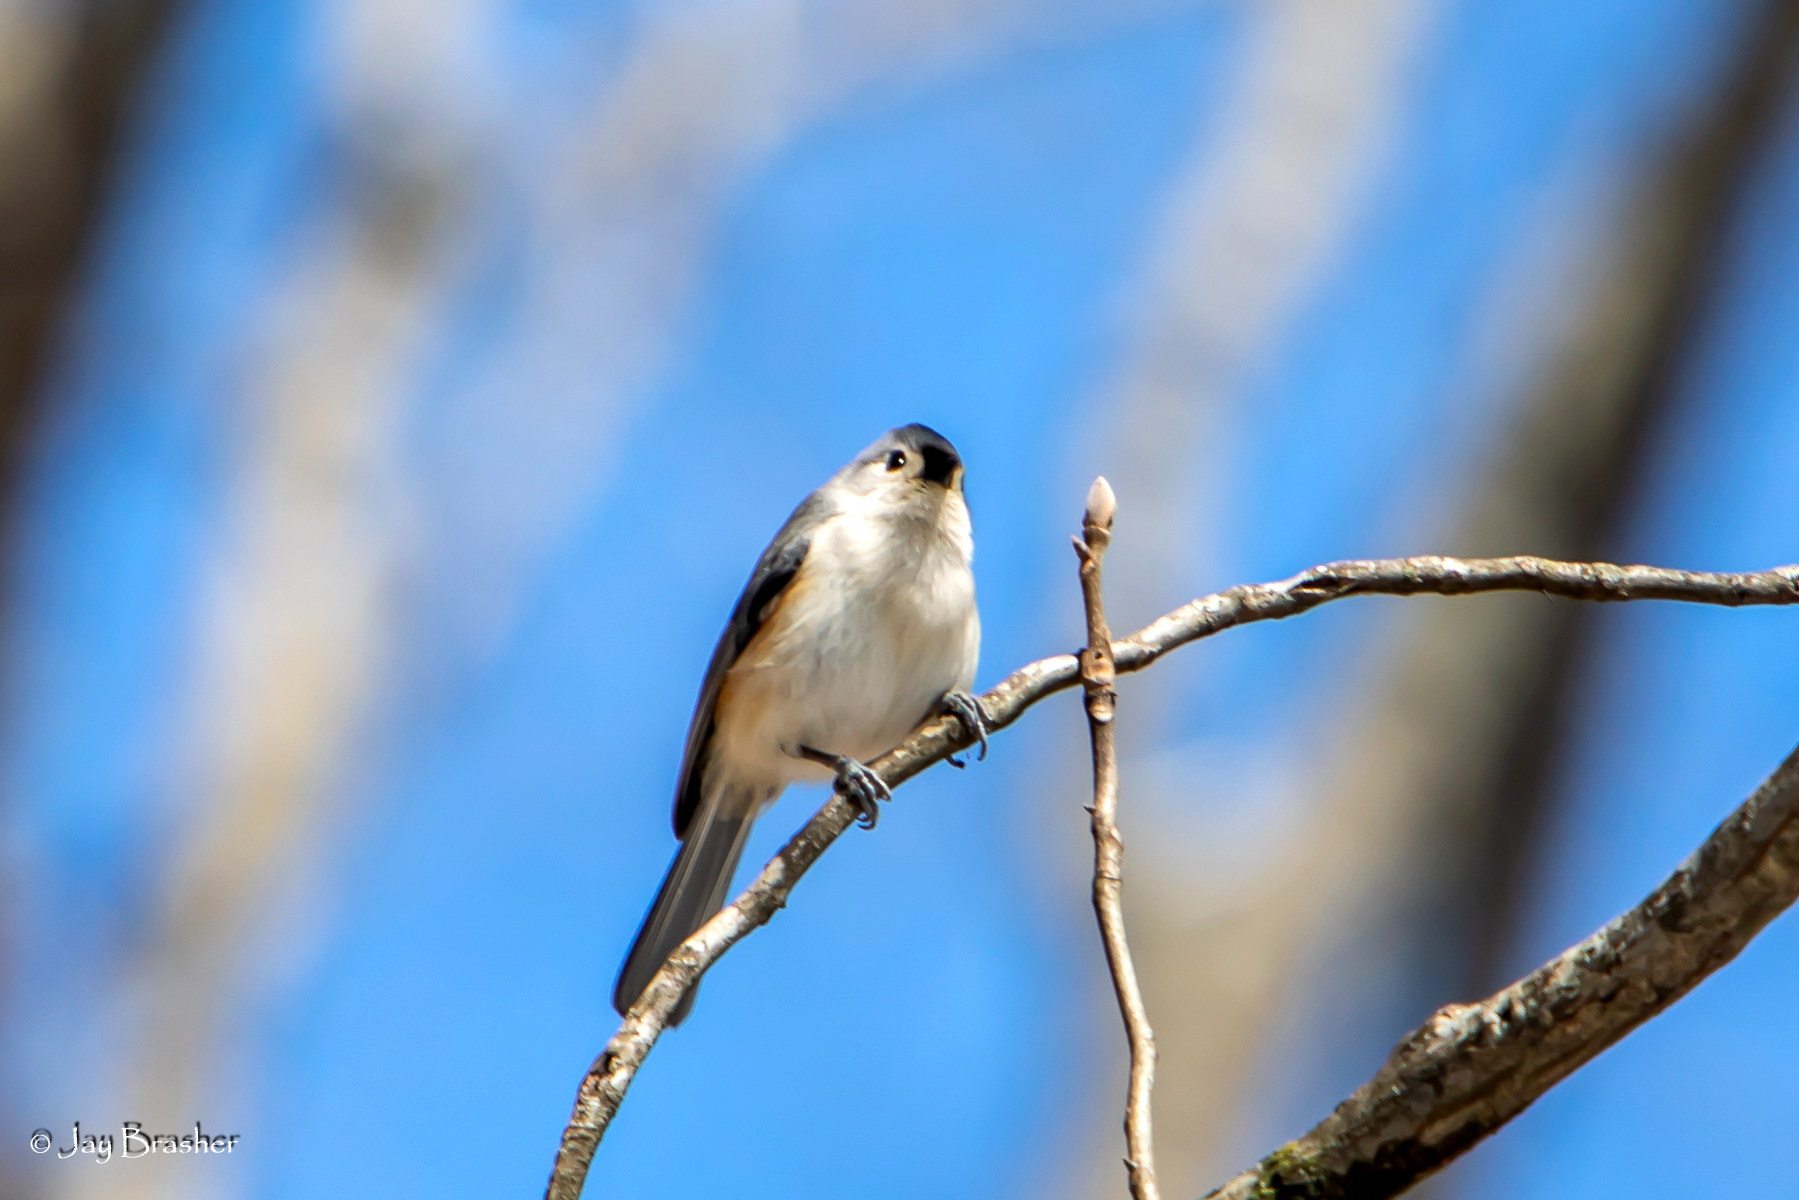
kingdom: Animalia
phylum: Chordata
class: Aves
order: Passeriformes
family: Paridae
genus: Baeolophus
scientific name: Baeolophus bicolor
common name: Tufted titmouse
